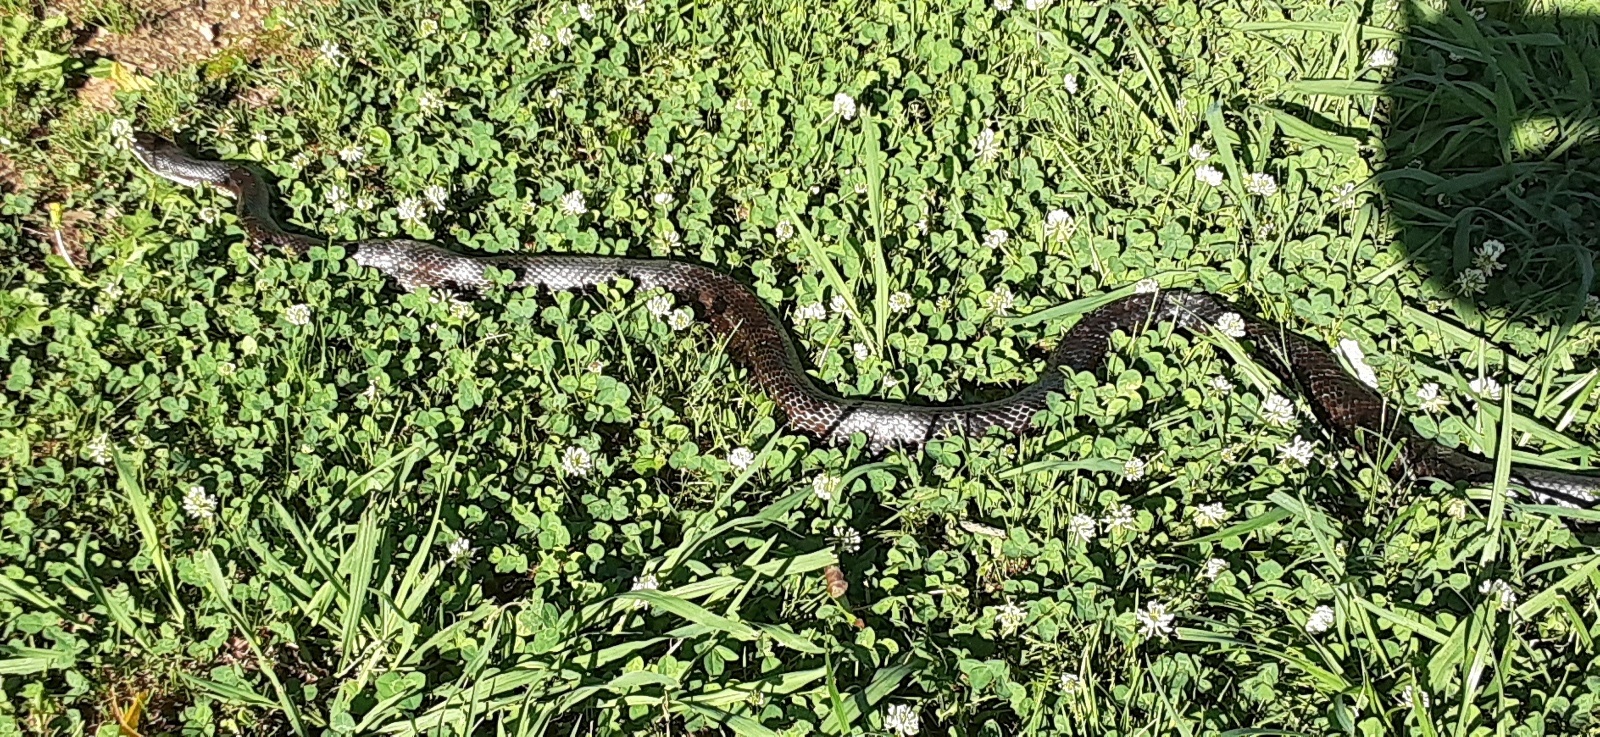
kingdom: Animalia
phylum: Chordata
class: Squamata
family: Colubridae
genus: Pantherophis
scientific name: Pantherophis spiloides
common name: Gray rat snake
